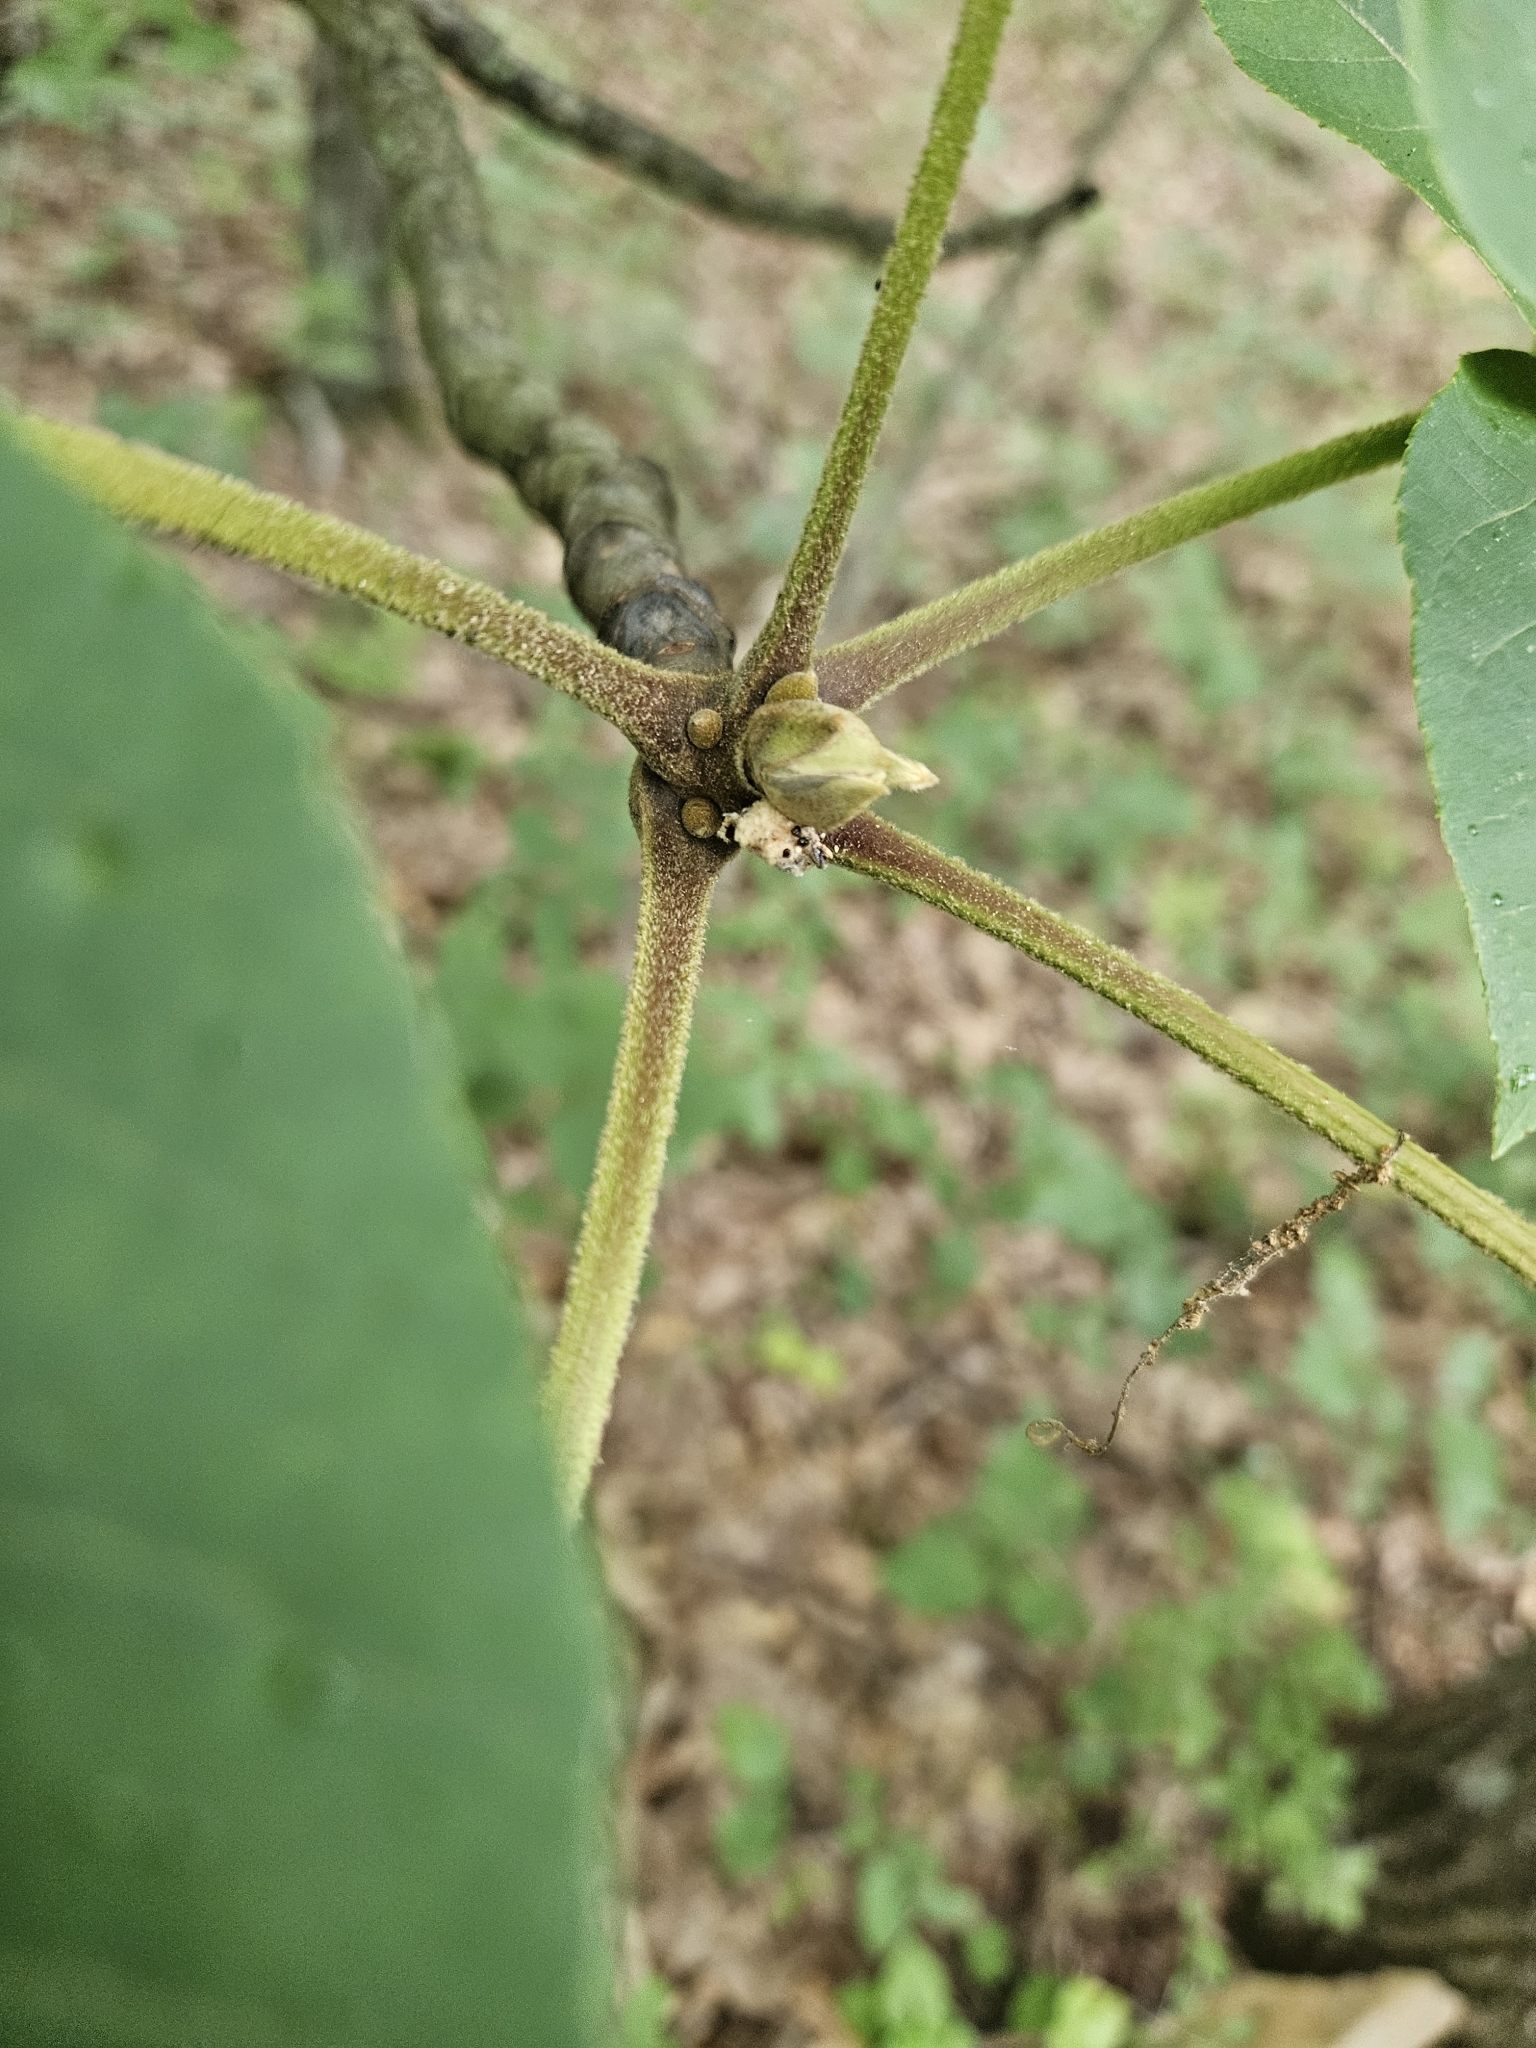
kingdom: Plantae
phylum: Tracheophyta
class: Magnoliopsida
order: Fagales
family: Juglandaceae
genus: Carya
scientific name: Carya alba
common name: Mockernut hickory
